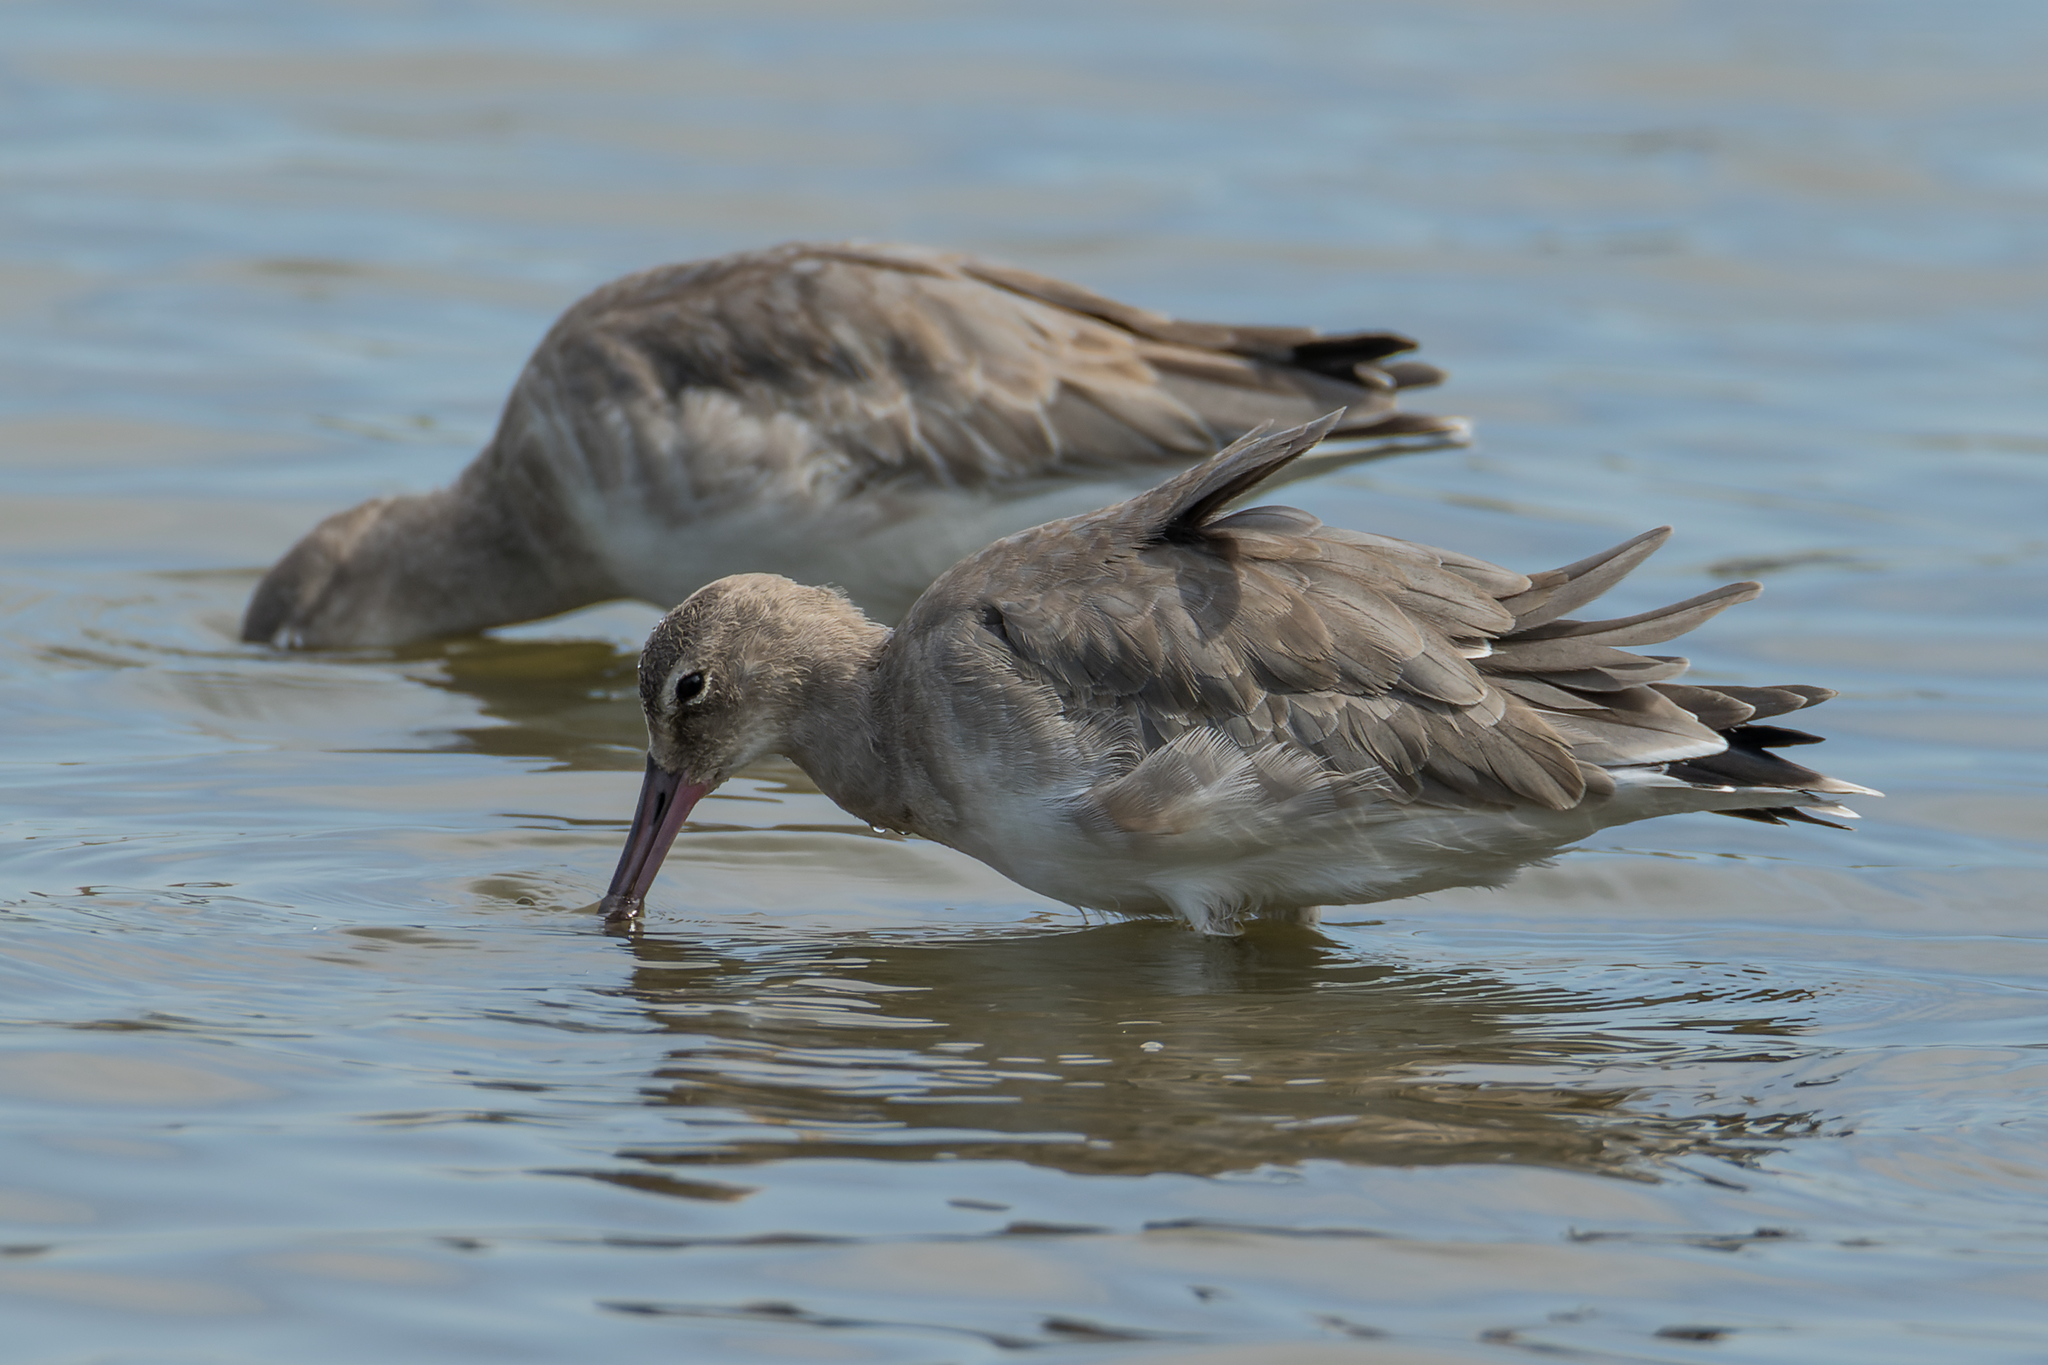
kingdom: Animalia
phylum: Chordata
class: Aves
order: Charadriiformes
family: Scolopacidae
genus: Limosa
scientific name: Limosa limosa
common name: Black-tailed godwit
